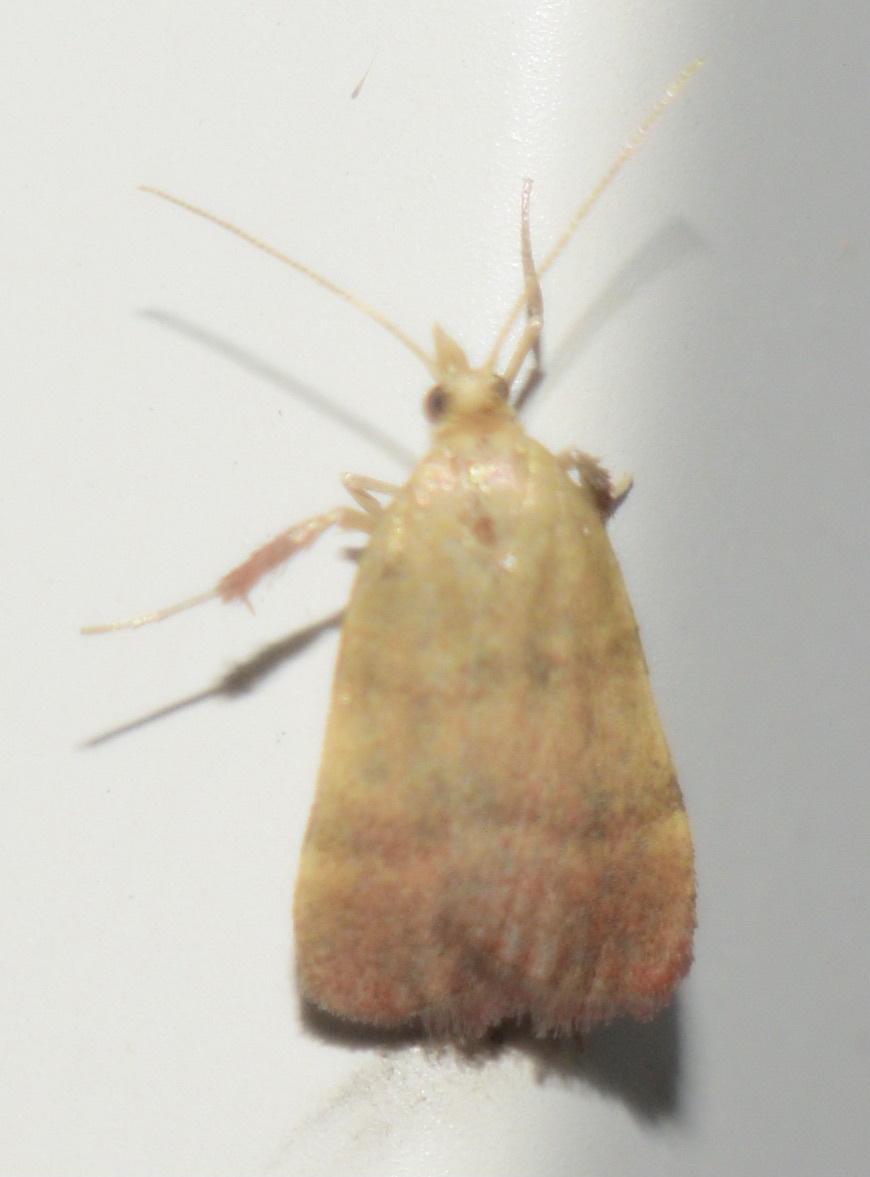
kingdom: Animalia
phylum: Arthropoda
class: Insecta
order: Lepidoptera
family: Pyralidae
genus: Condylolomia
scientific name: Condylolomia participialis
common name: Drab condylolomia moth
